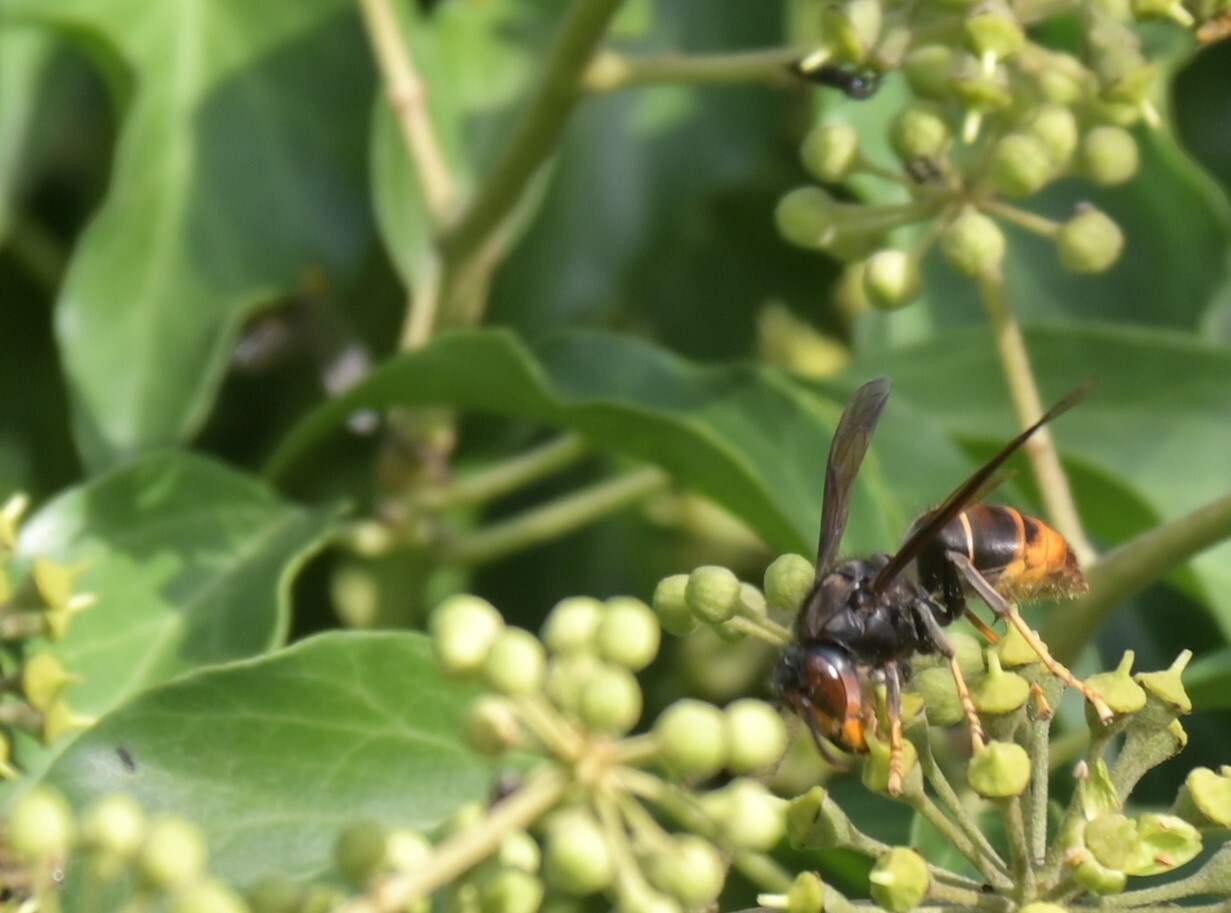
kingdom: Animalia
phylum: Arthropoda
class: Insecta
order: Hymenoptera
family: Vespidae
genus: Vespa
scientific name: Vespa velutina
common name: Asian hornet
